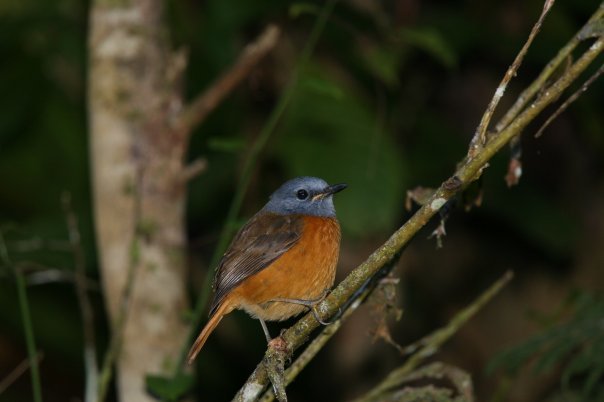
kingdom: Animalia
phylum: Chordata
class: Aves
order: Passeriformes
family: Muscicapidae
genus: Monticola
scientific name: Monticola erythronotus
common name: Amber mountain rock thrush
